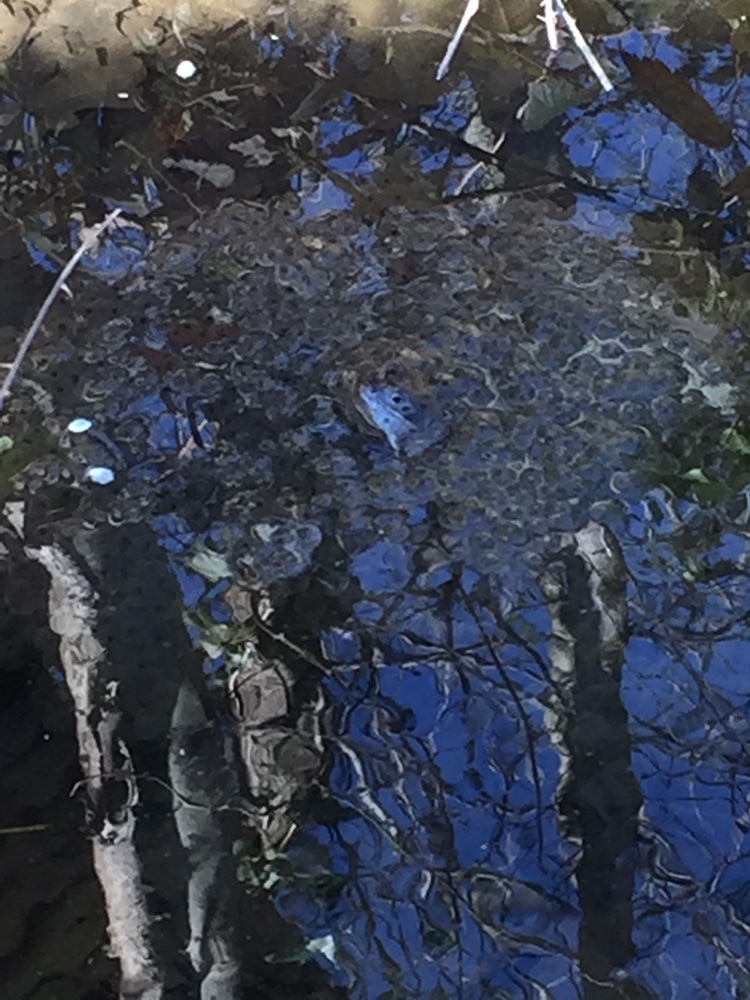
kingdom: Animalia
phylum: Chordata
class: Amphibia
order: Anura
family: Ranidae
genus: Rana
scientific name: Rana temporaria
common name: Common frog
